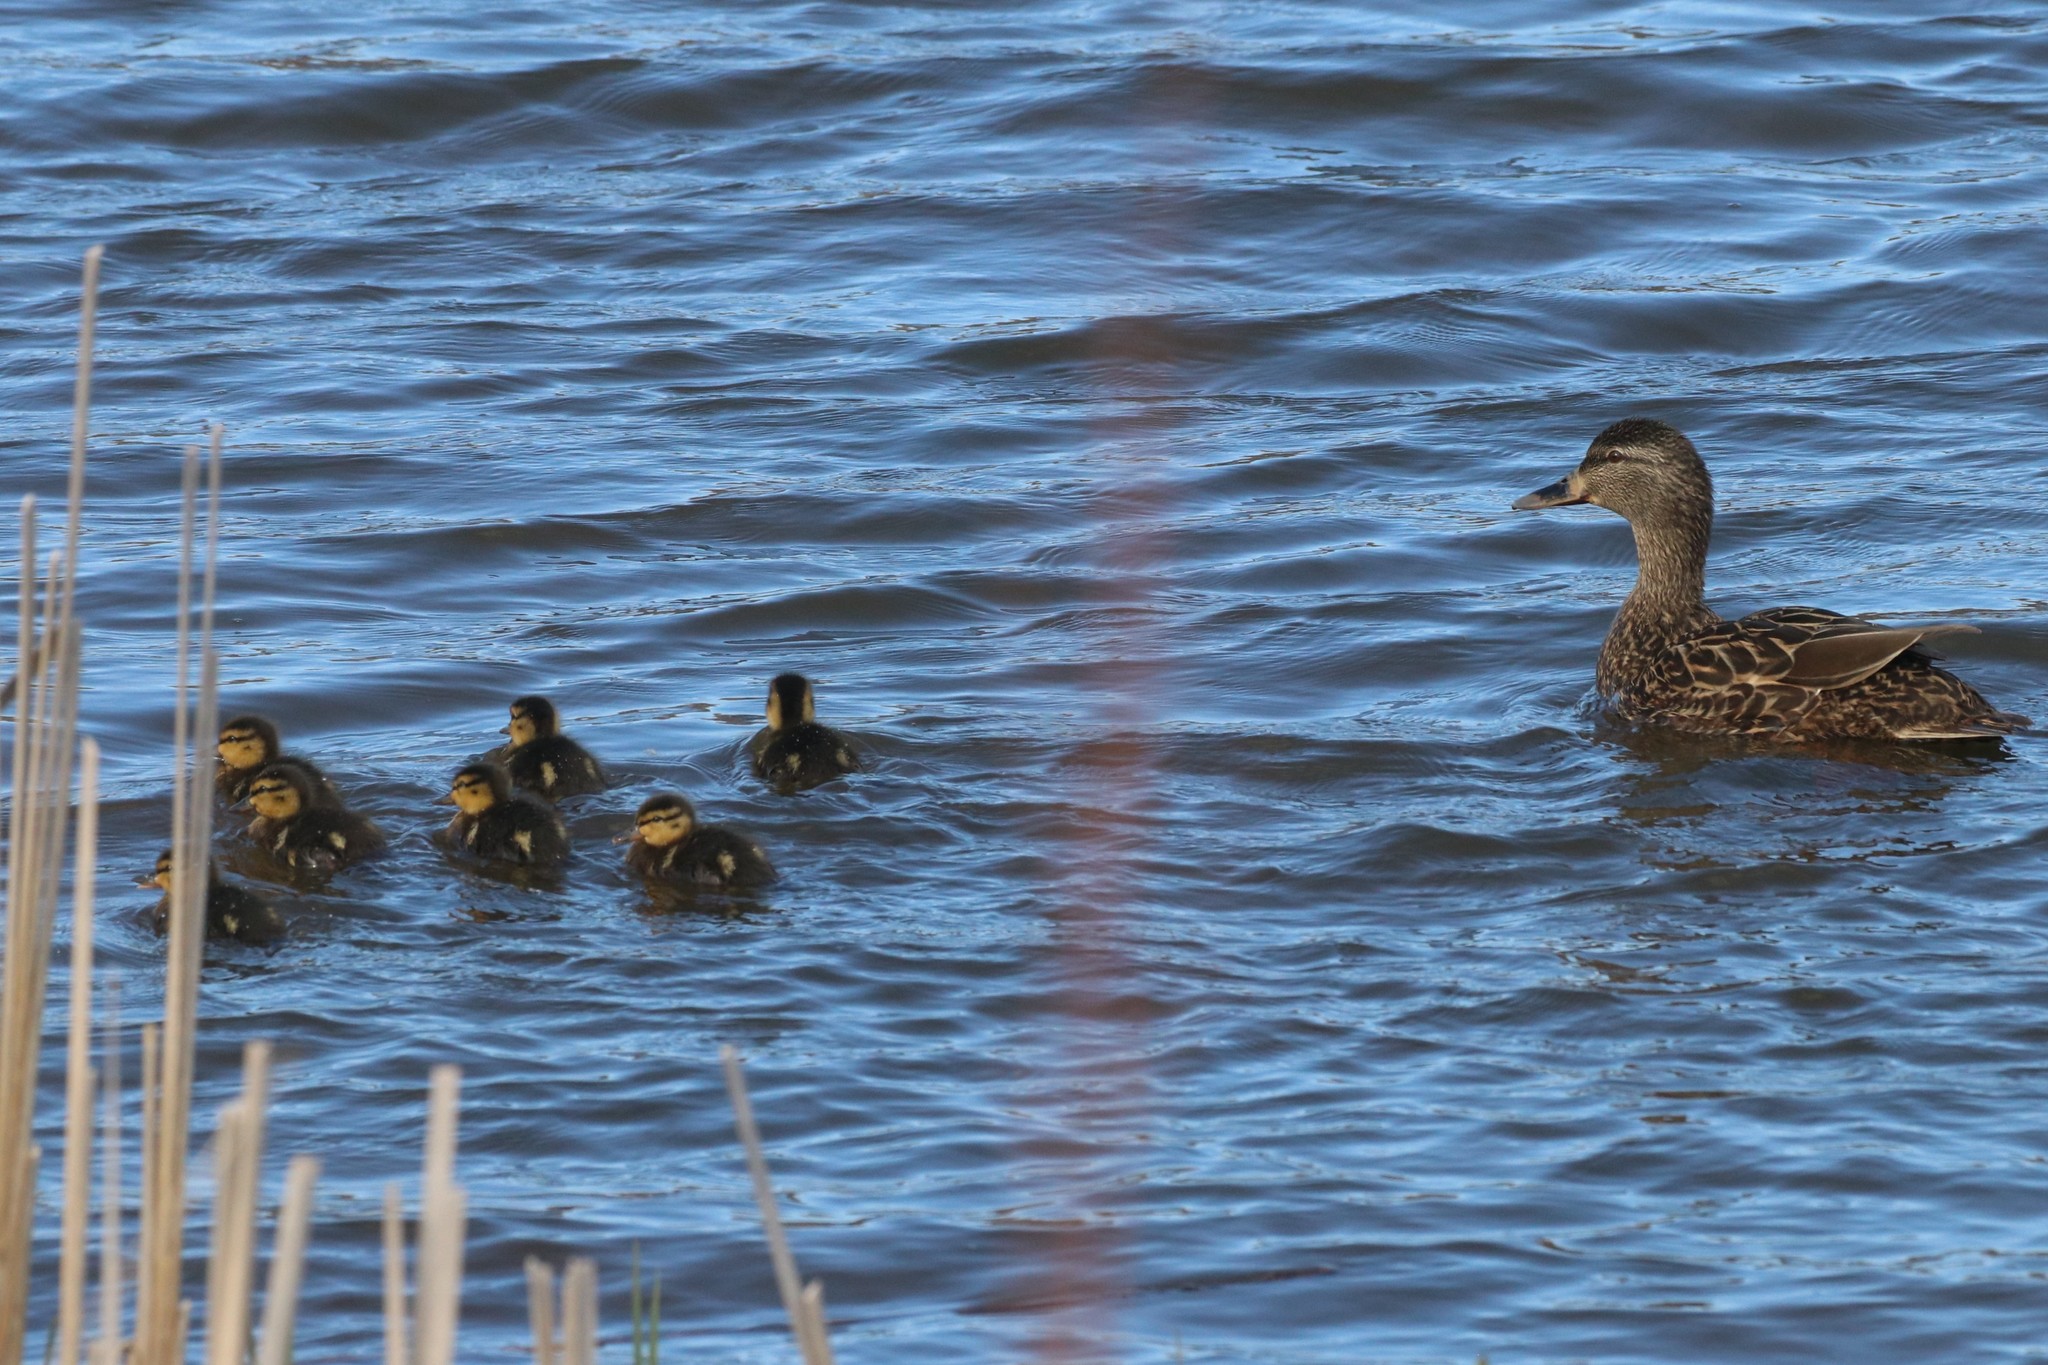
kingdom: Animalia
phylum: Chordata
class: Aves
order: Anseriformes
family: Anatidae
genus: Anas
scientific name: Anas platyrhynchos
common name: Mallard
